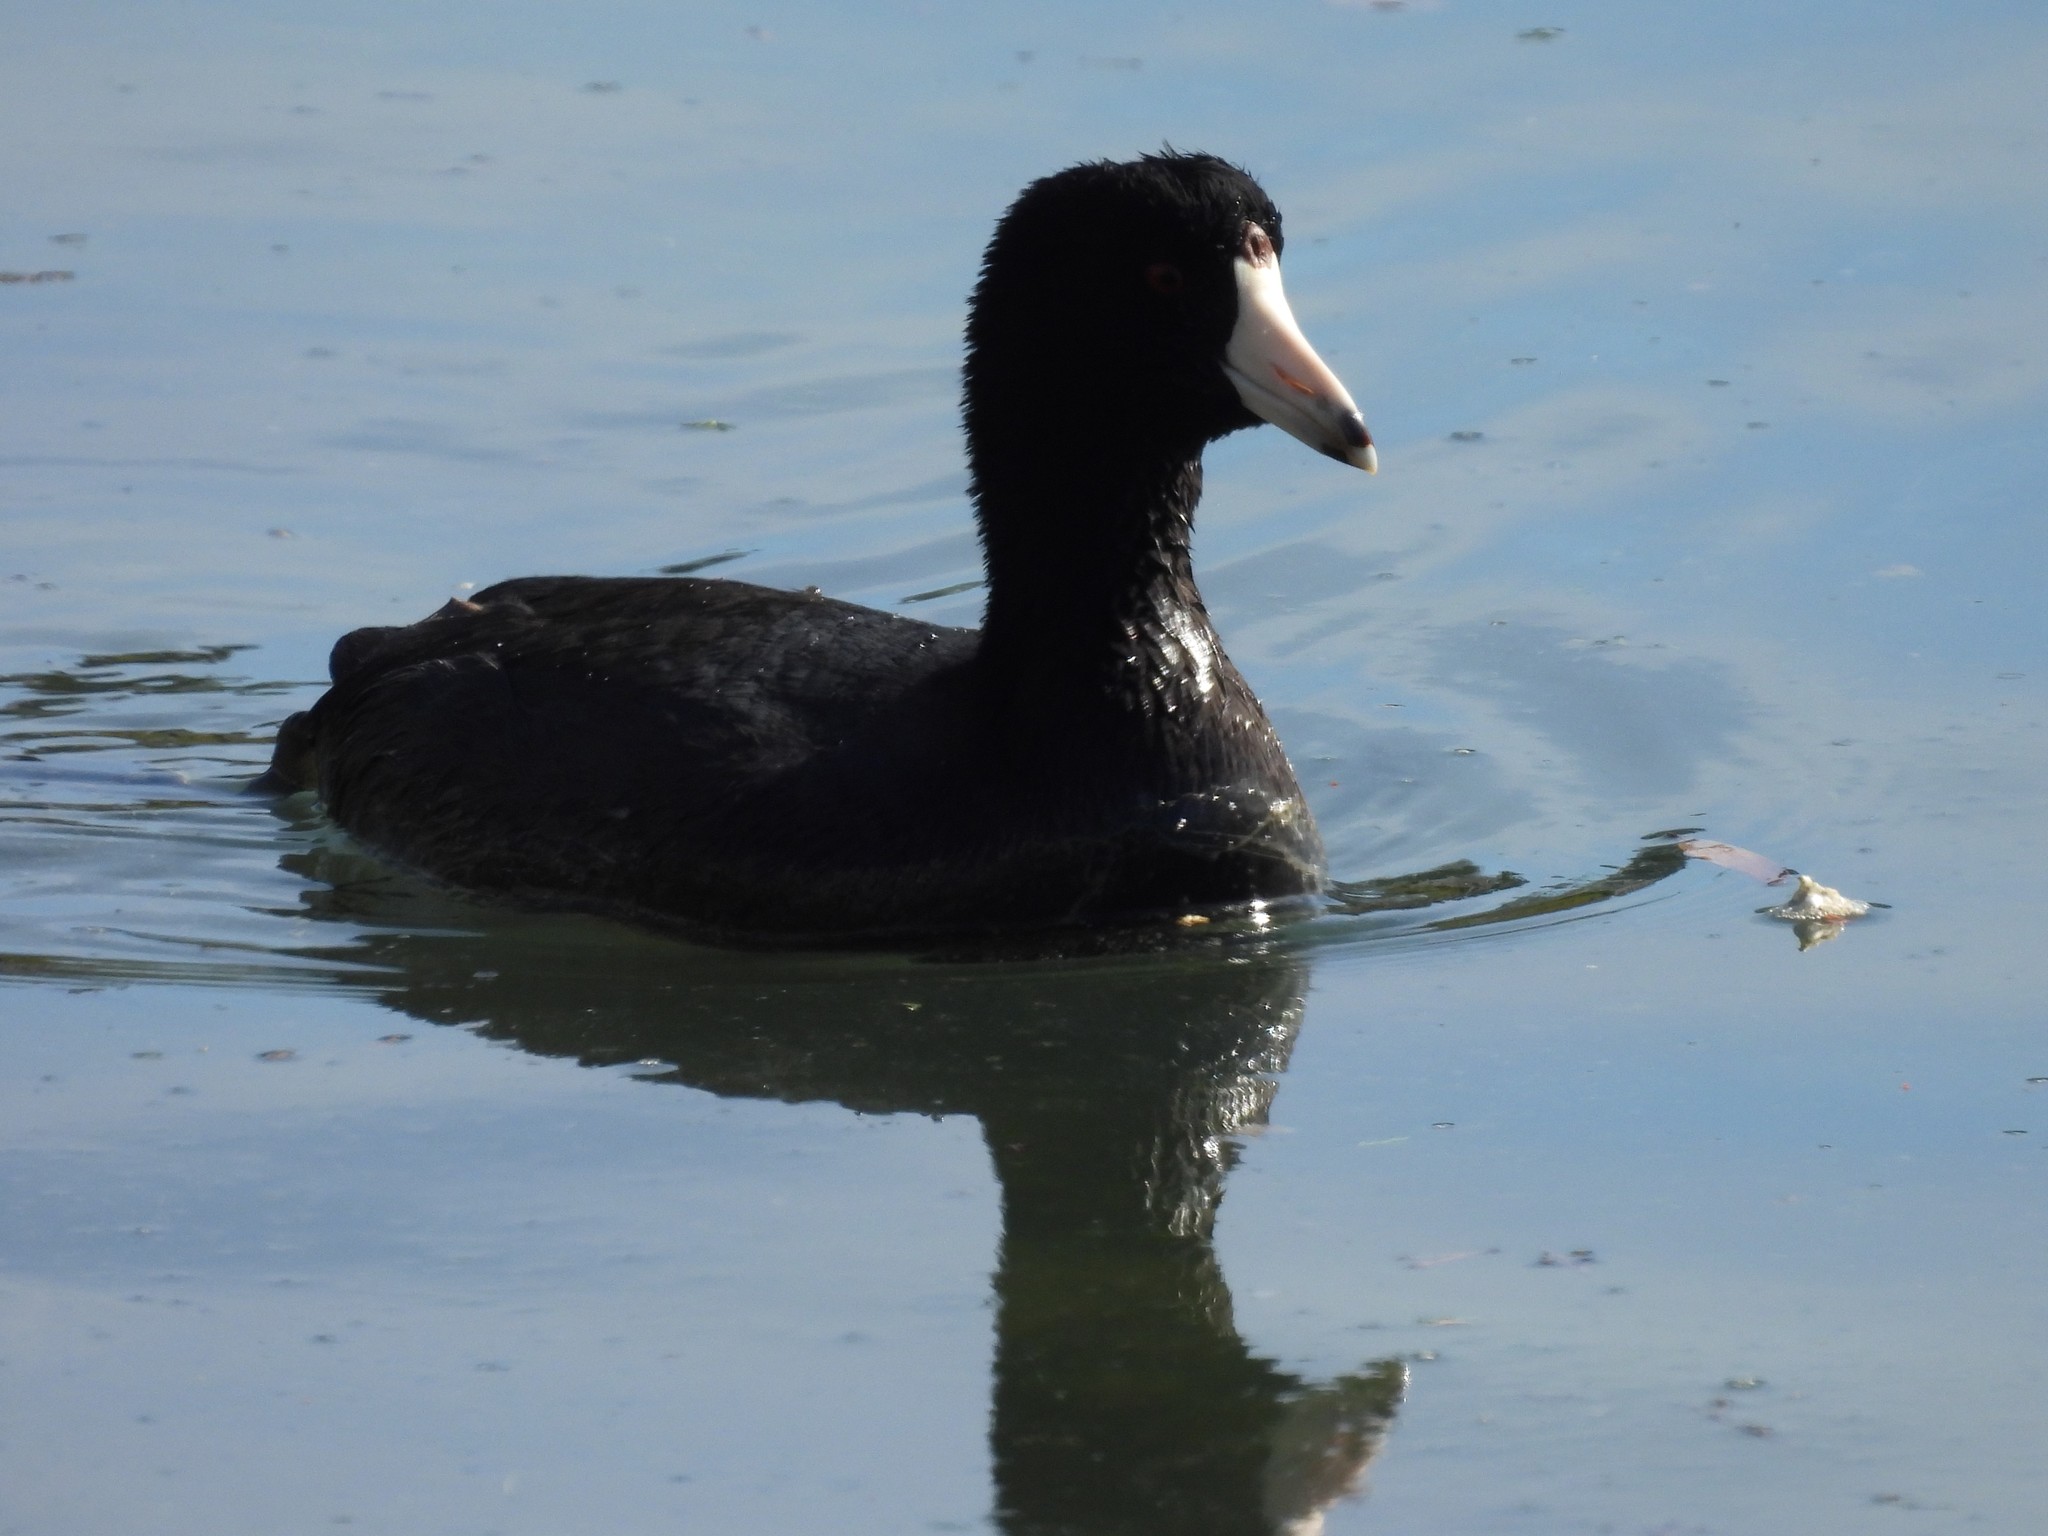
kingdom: Animalia
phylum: Chordata
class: Aves
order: Gruiformes
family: Rallidae
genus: Fulica
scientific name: Fulica americana
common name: American coot
